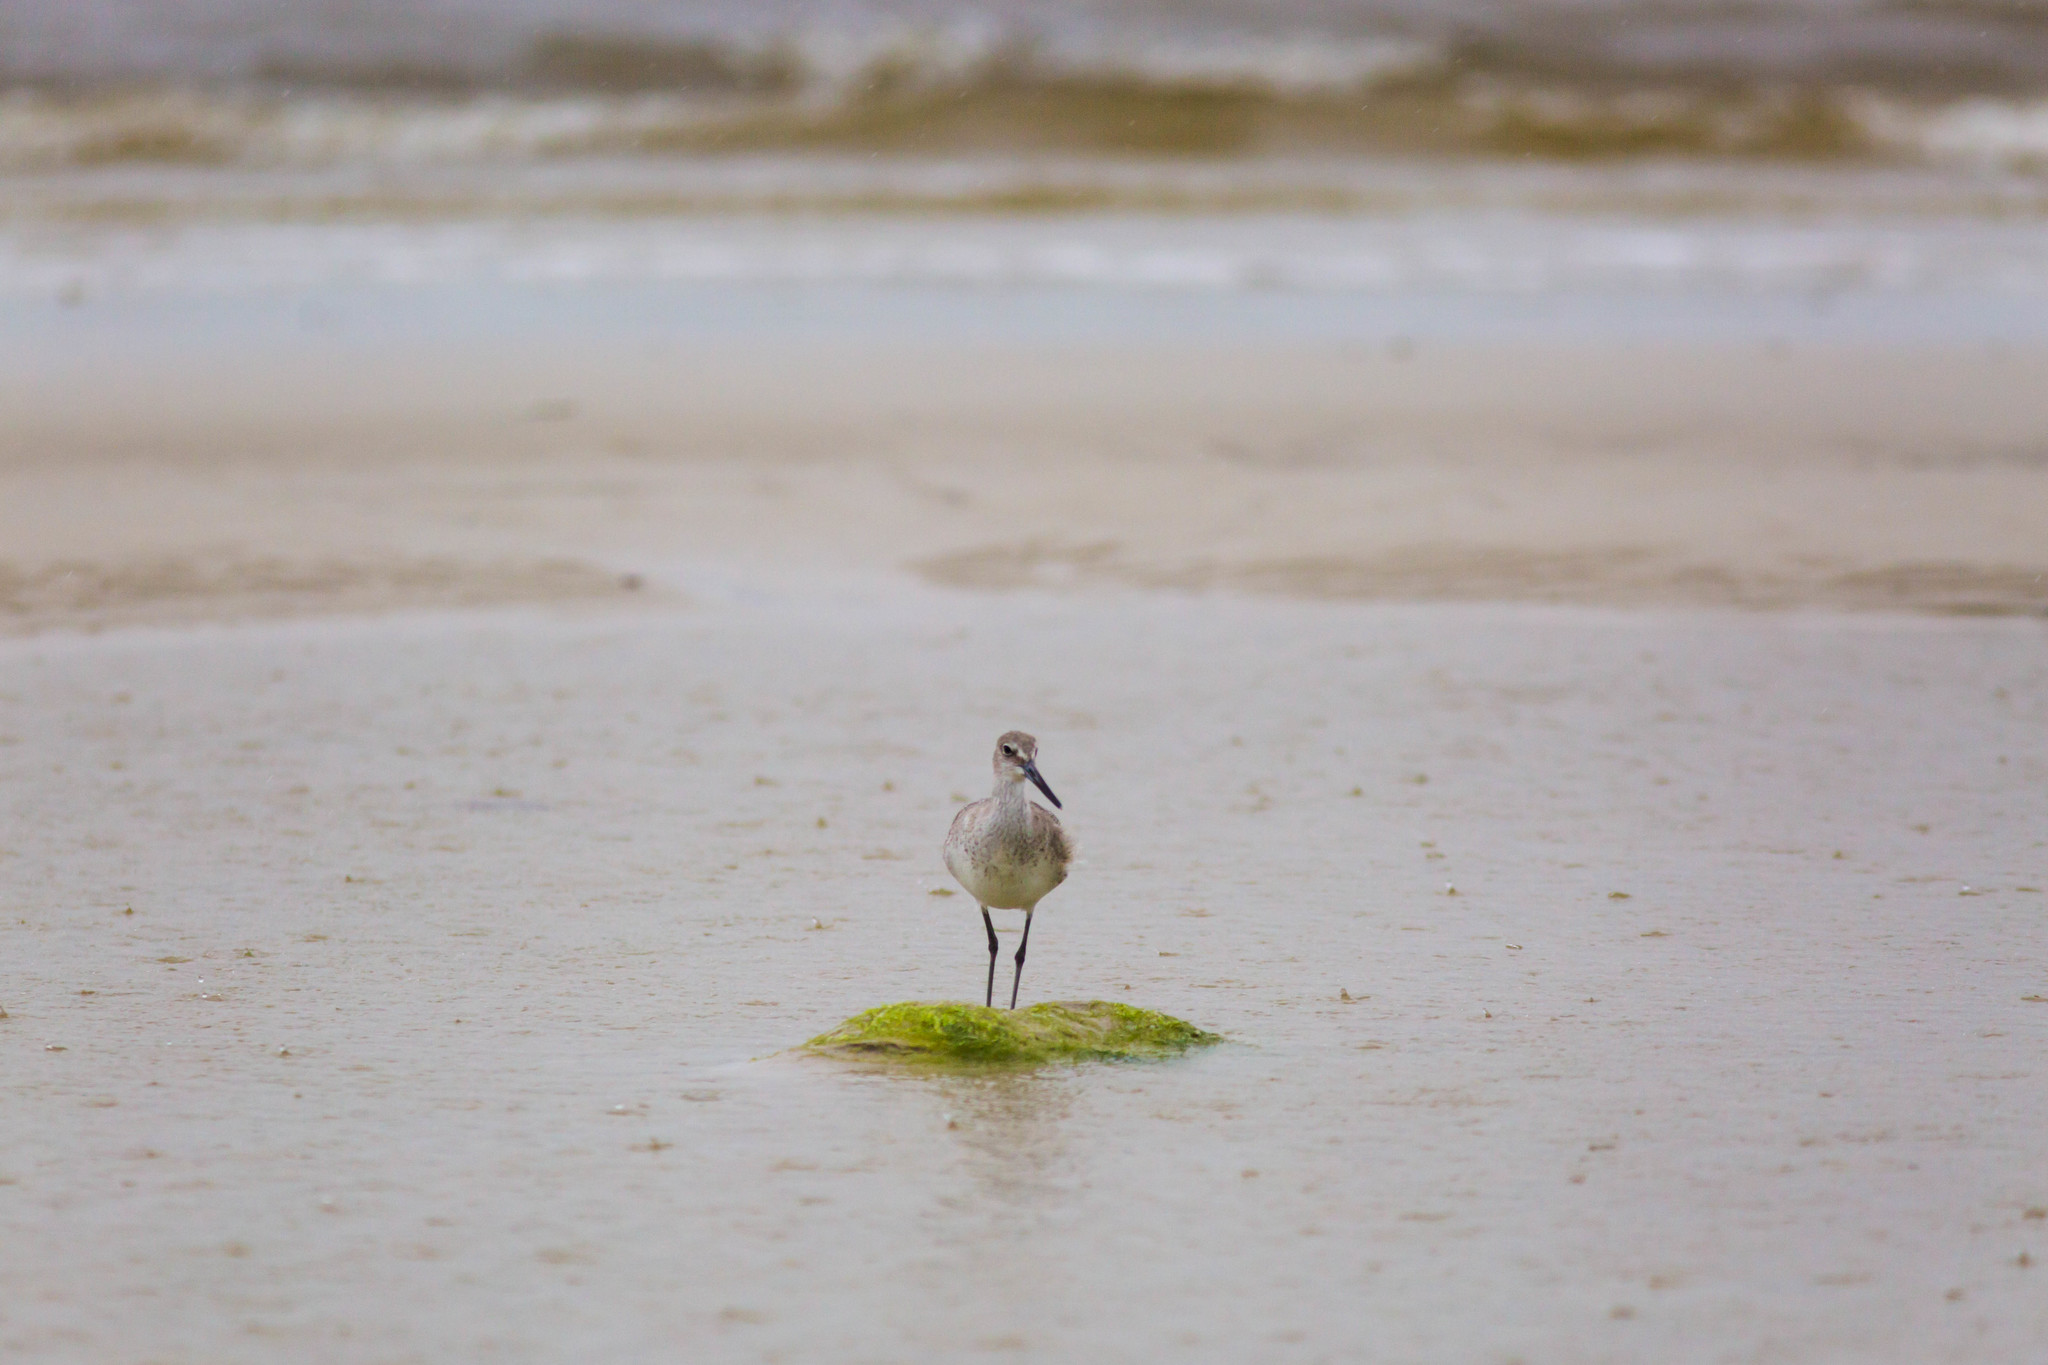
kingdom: Animalia
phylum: Chordata
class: Aves
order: Charadriiformes
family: Scolopacidae
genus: Tringa
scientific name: Tringa semipalmata
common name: Willet
